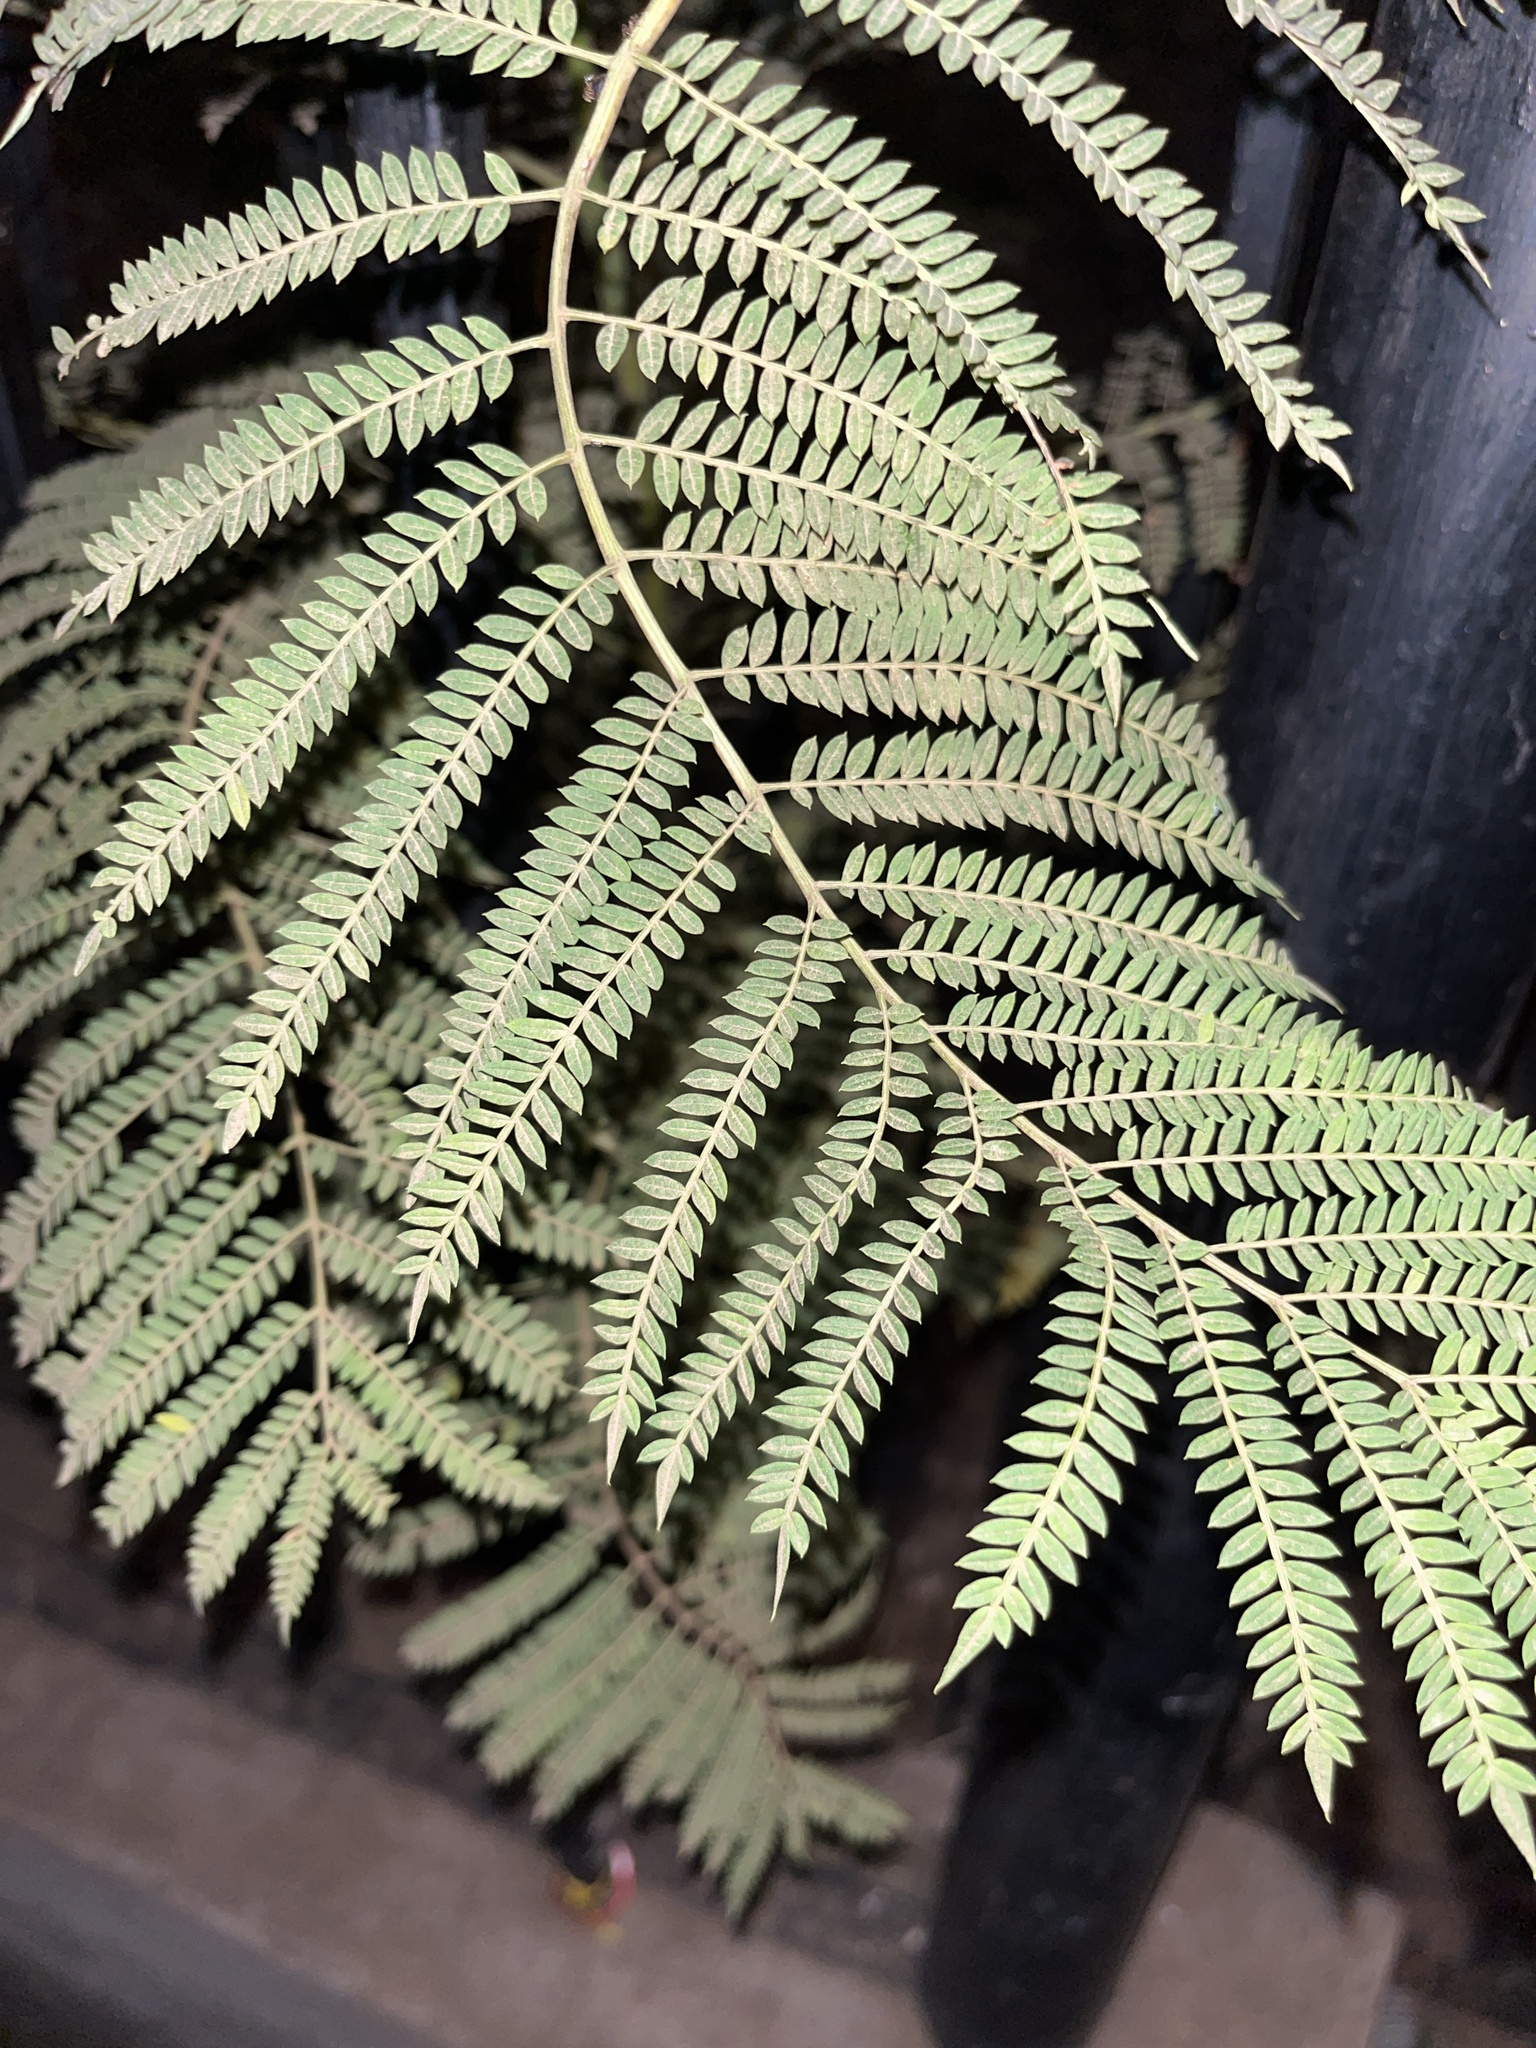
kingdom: Plantae
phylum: Tracheophyta
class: Magnoliopsida
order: Lamiales
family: Bignoniaceae
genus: Jacaranda
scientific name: Jacaranda mimosifolia
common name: Black poui
